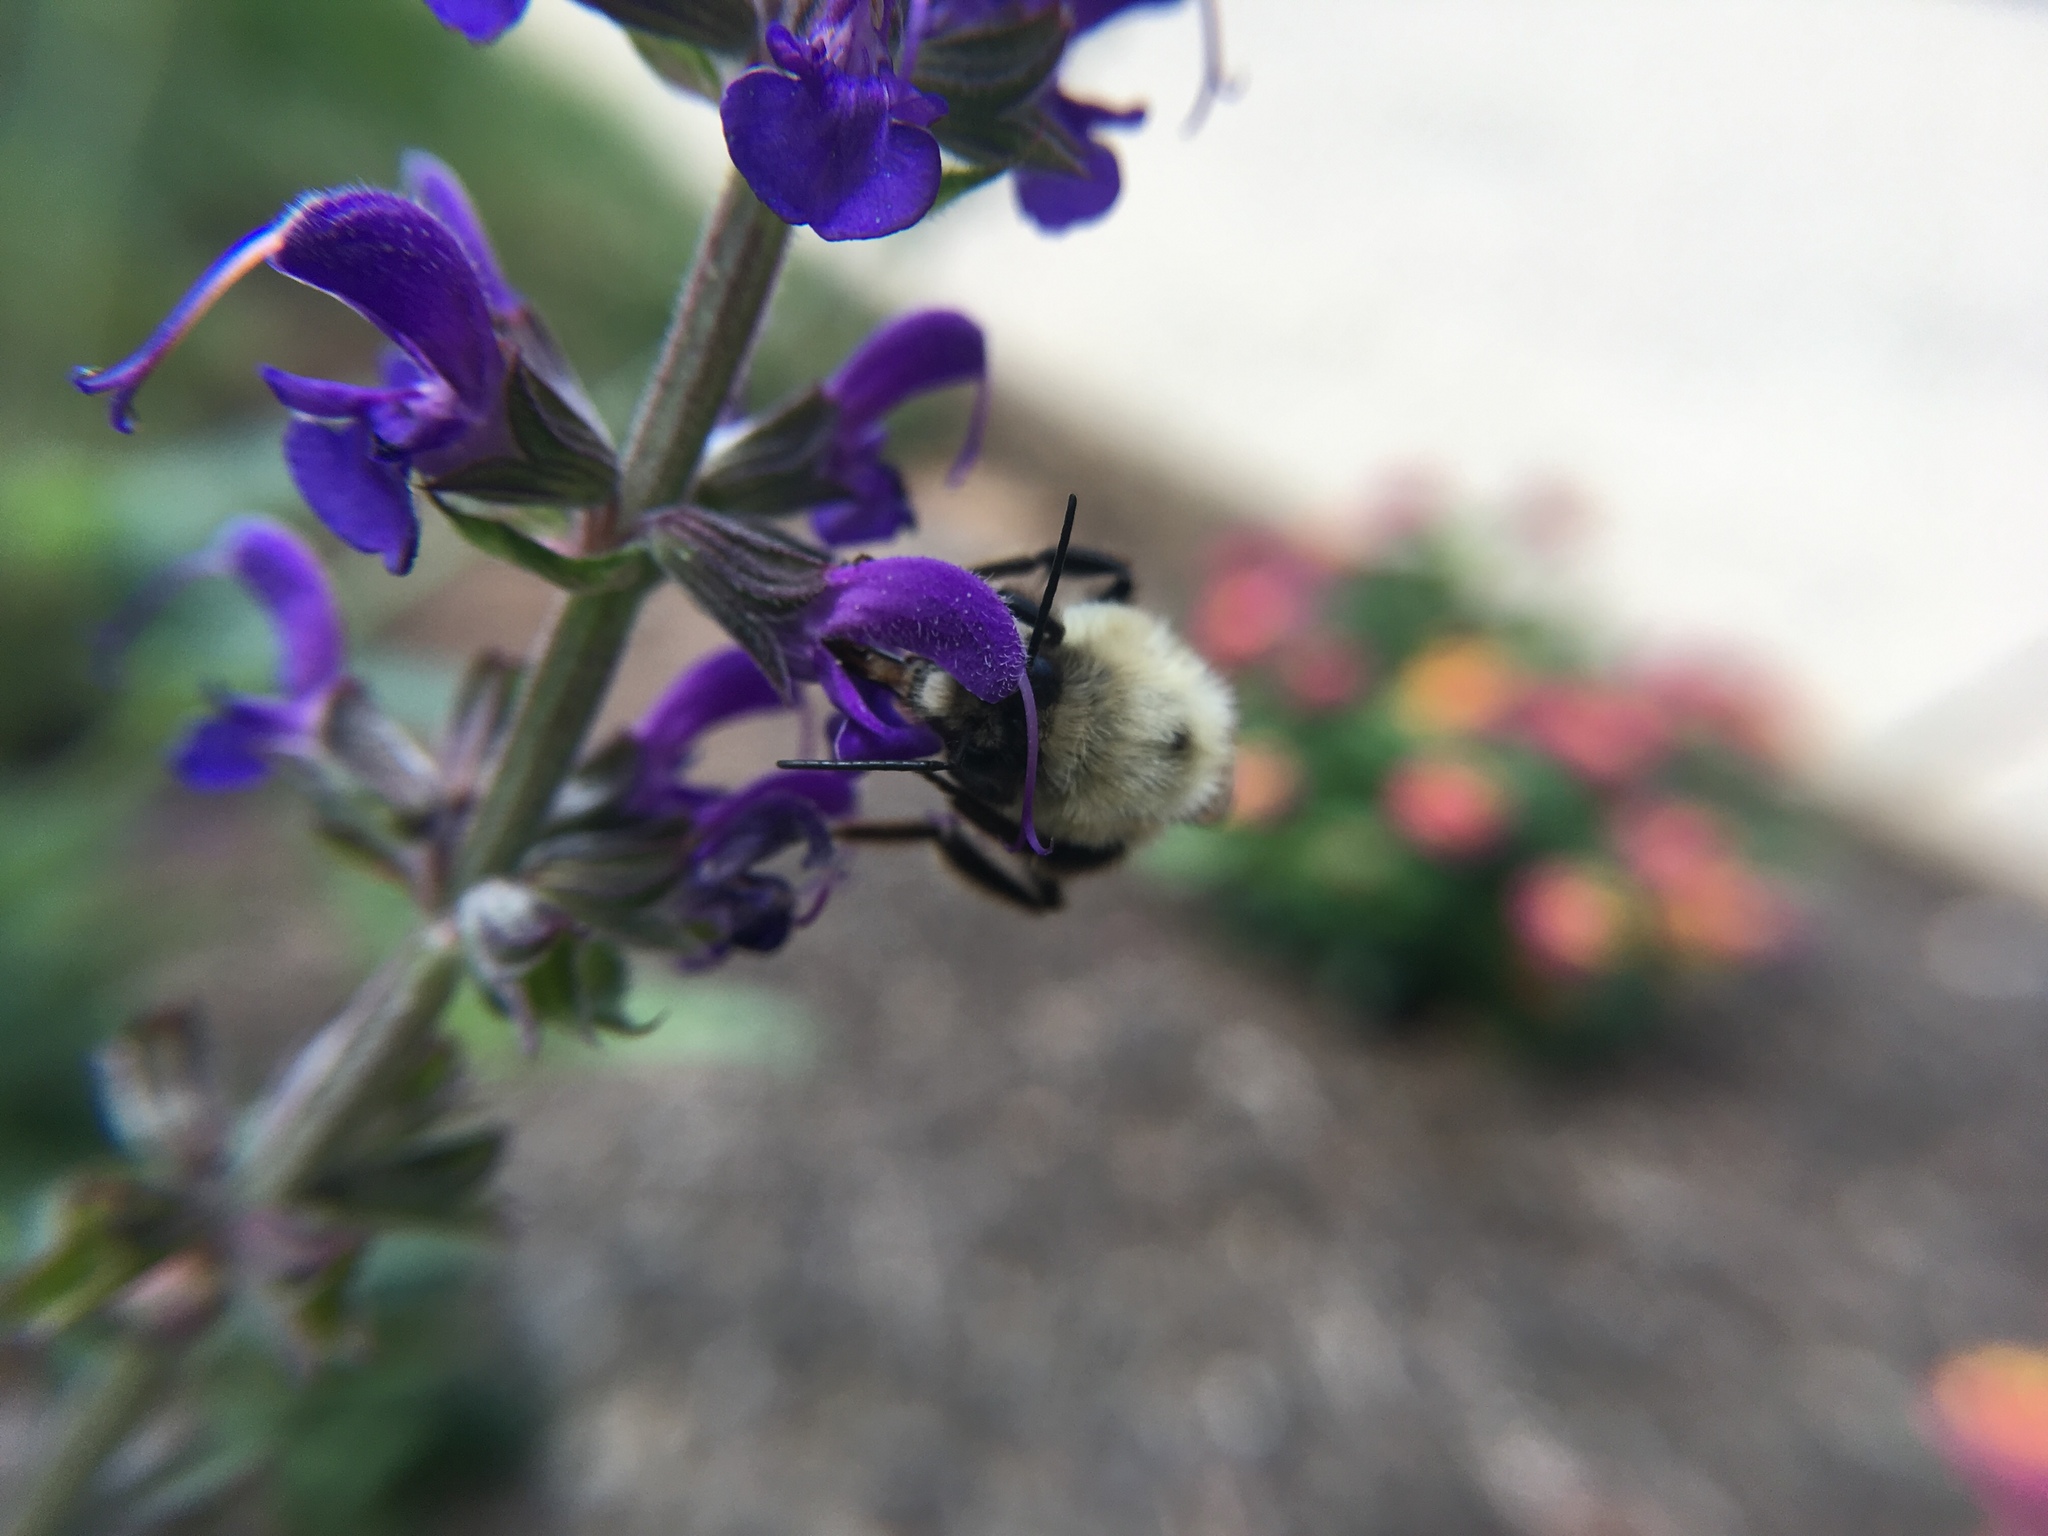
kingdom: Animalia
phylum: Arthropoda
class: Insecta
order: Hymenoptera
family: Apidae
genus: Bombus
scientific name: Bombus bimaculatus
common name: Two-spotted bumble bee
